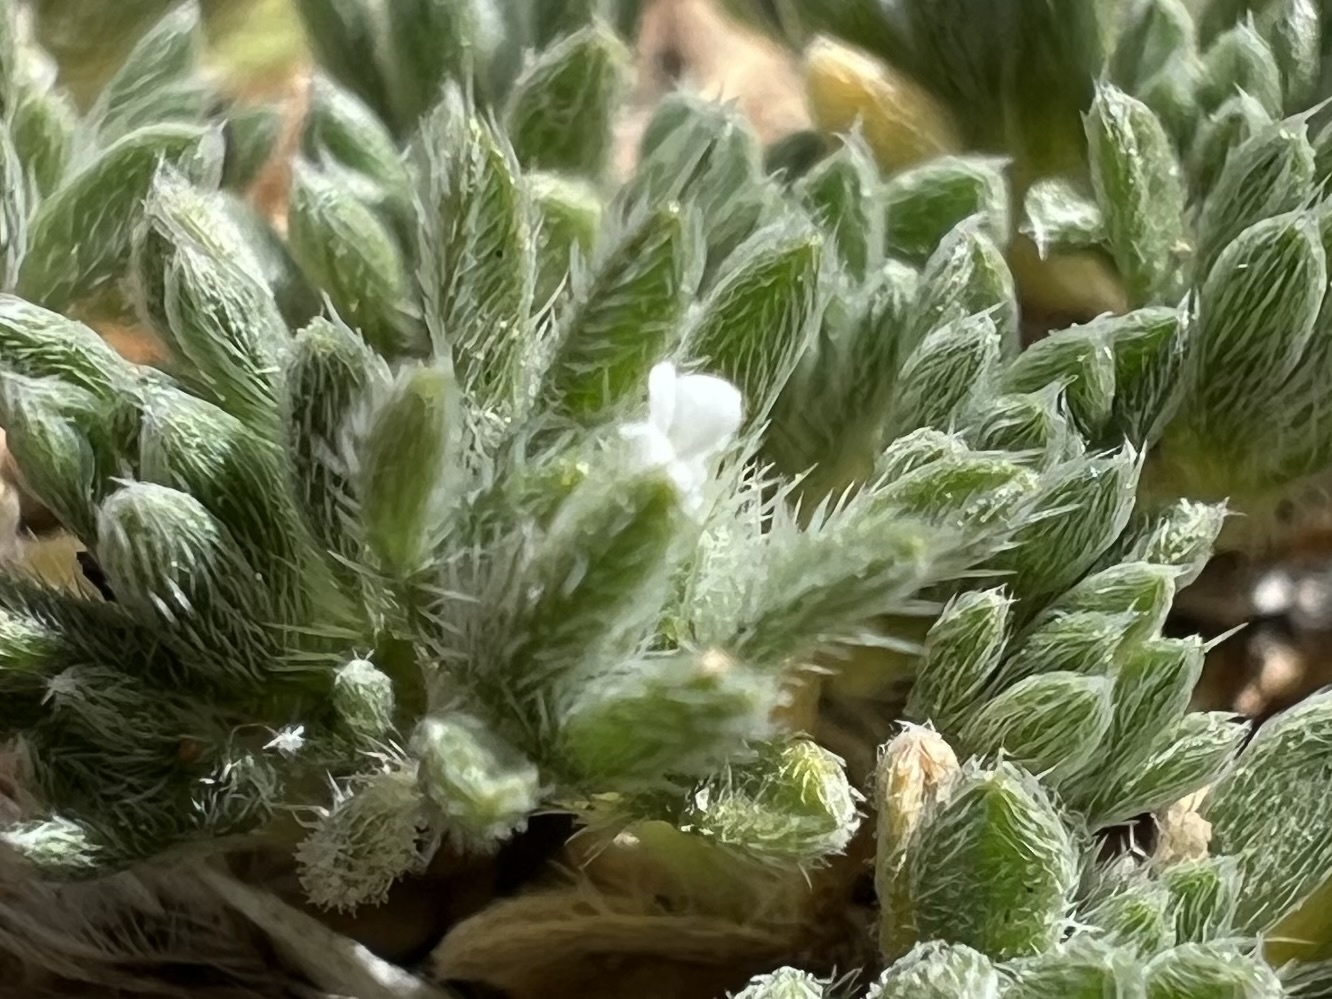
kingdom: Plantae
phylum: Tracheophyta
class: Magnoliopsida
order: Boraginales
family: Boraginaceae
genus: Greeneocharis
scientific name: Greeneocharis circumscissa
